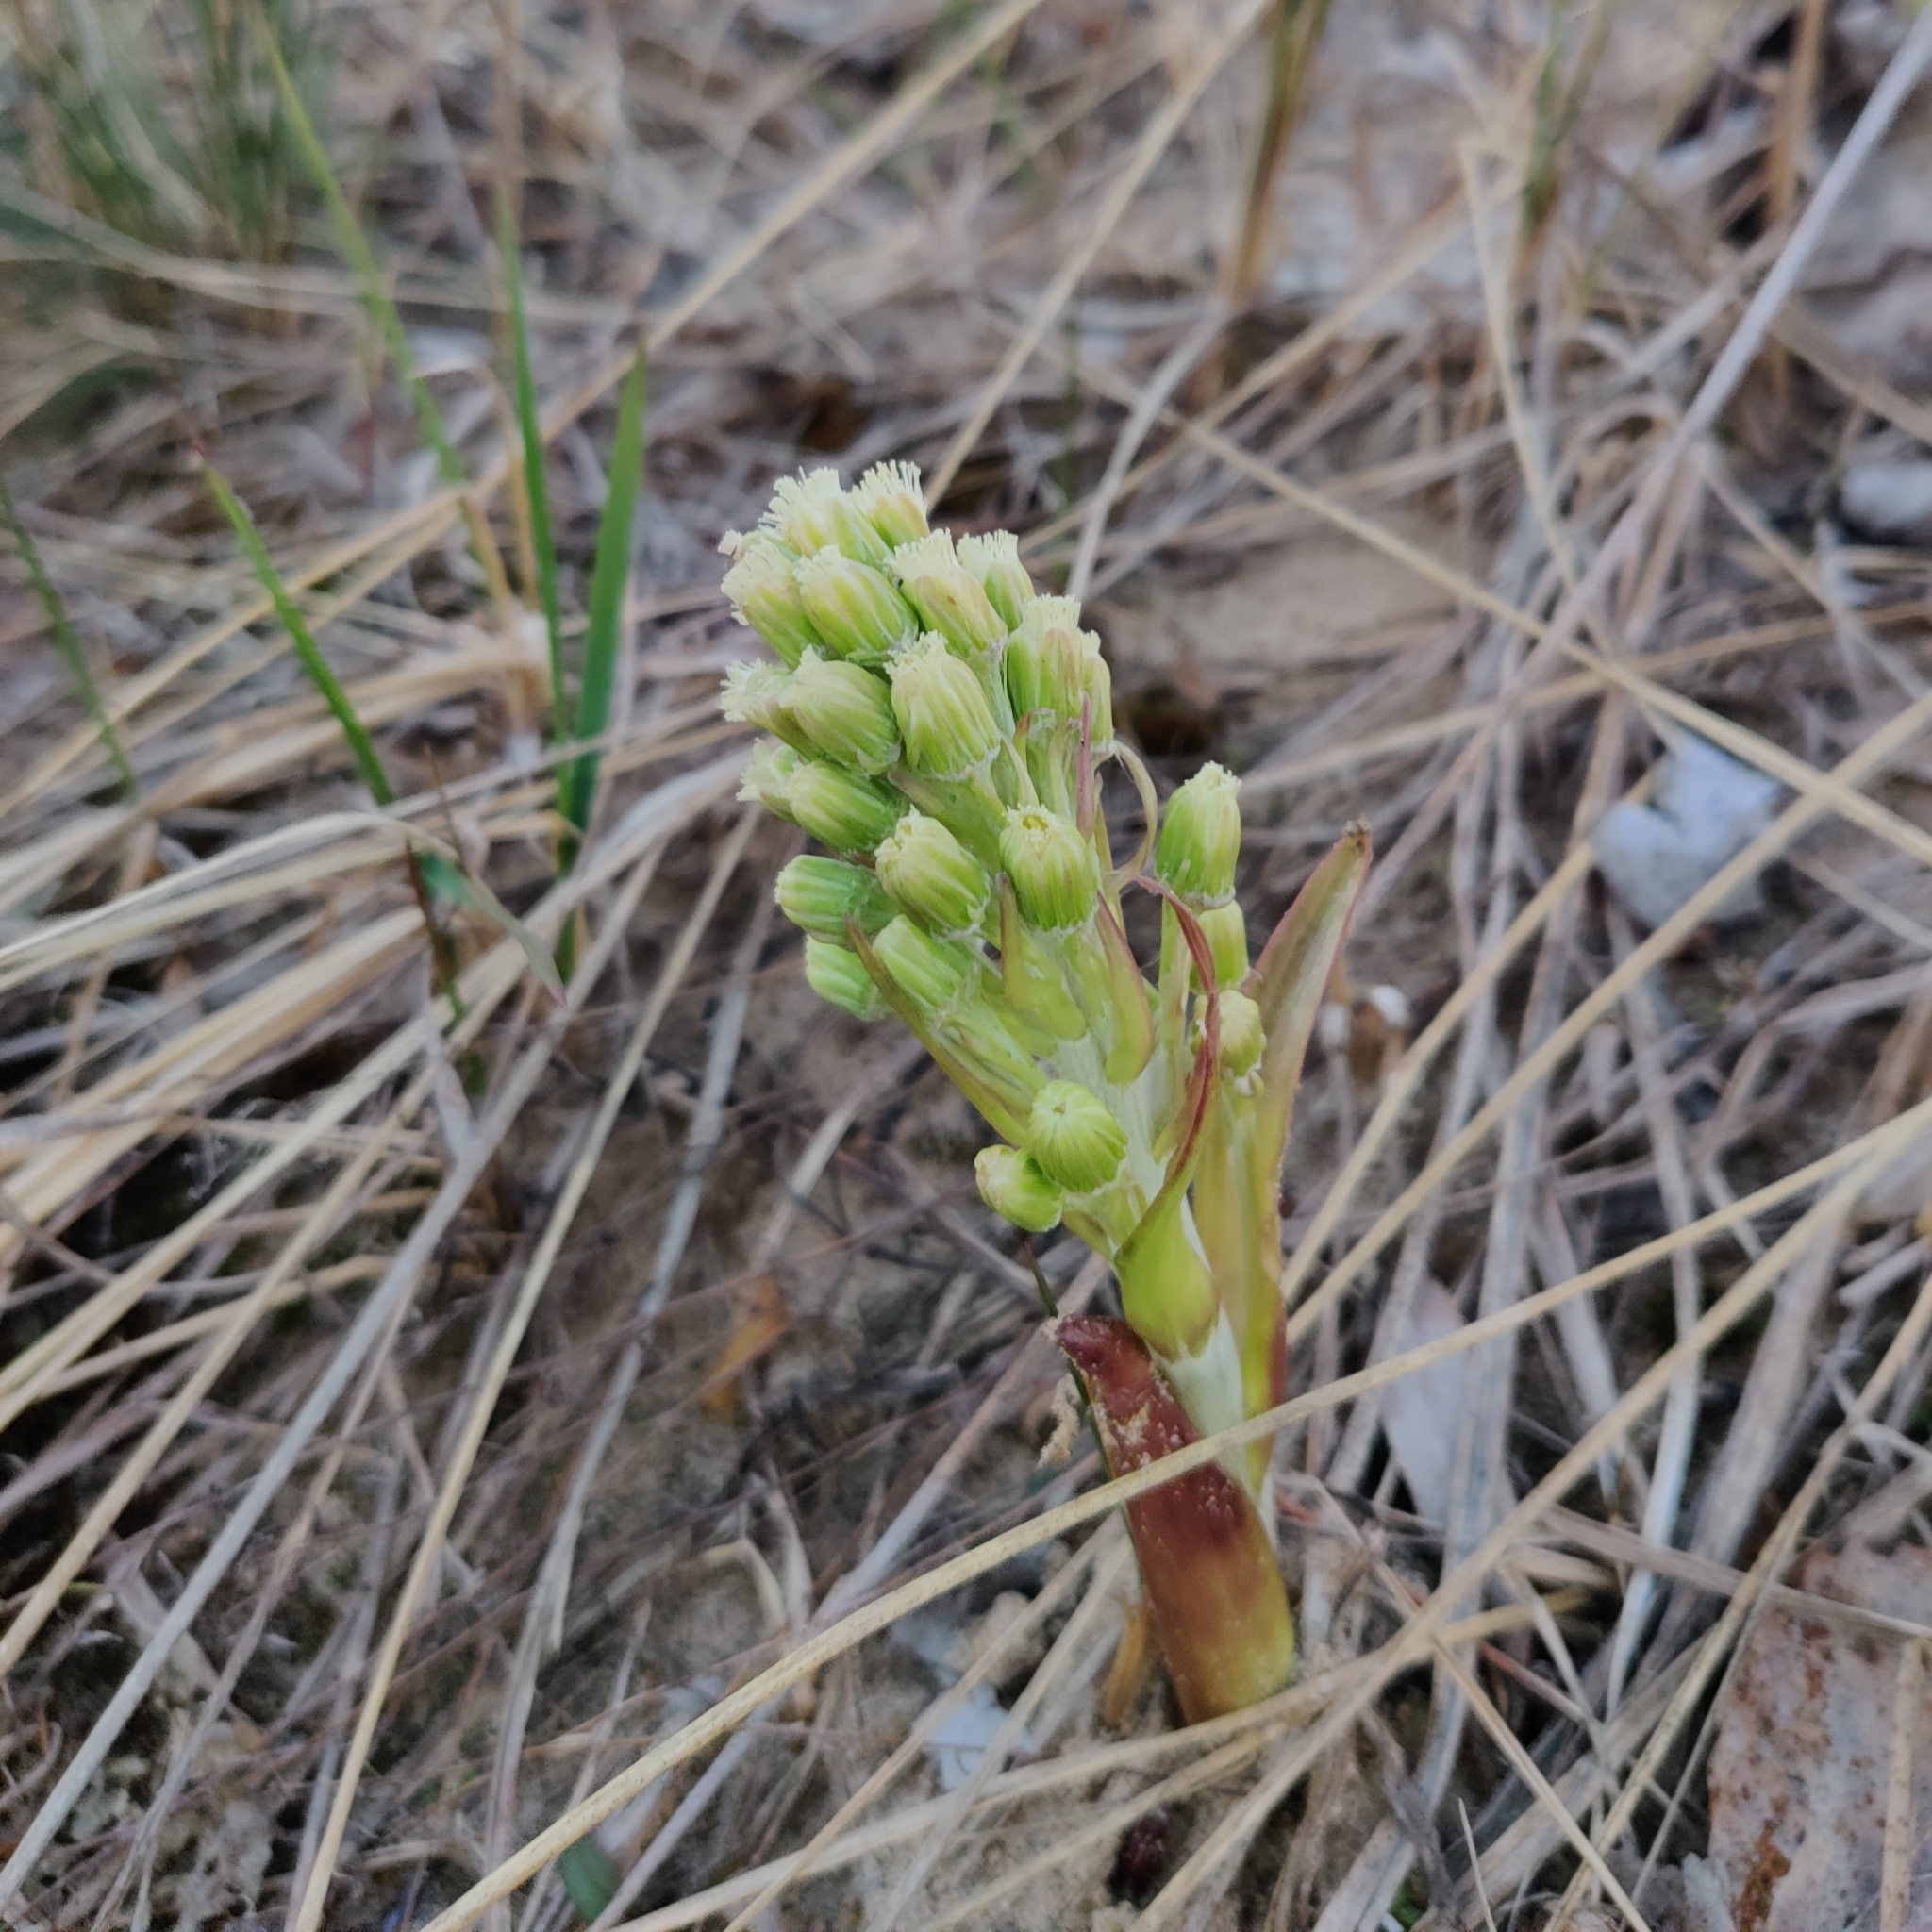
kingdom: Plantae
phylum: Tracheophyta
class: Magnoliopsida
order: Asterales
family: Asteraceae
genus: Petasites
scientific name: Petasites spurius
